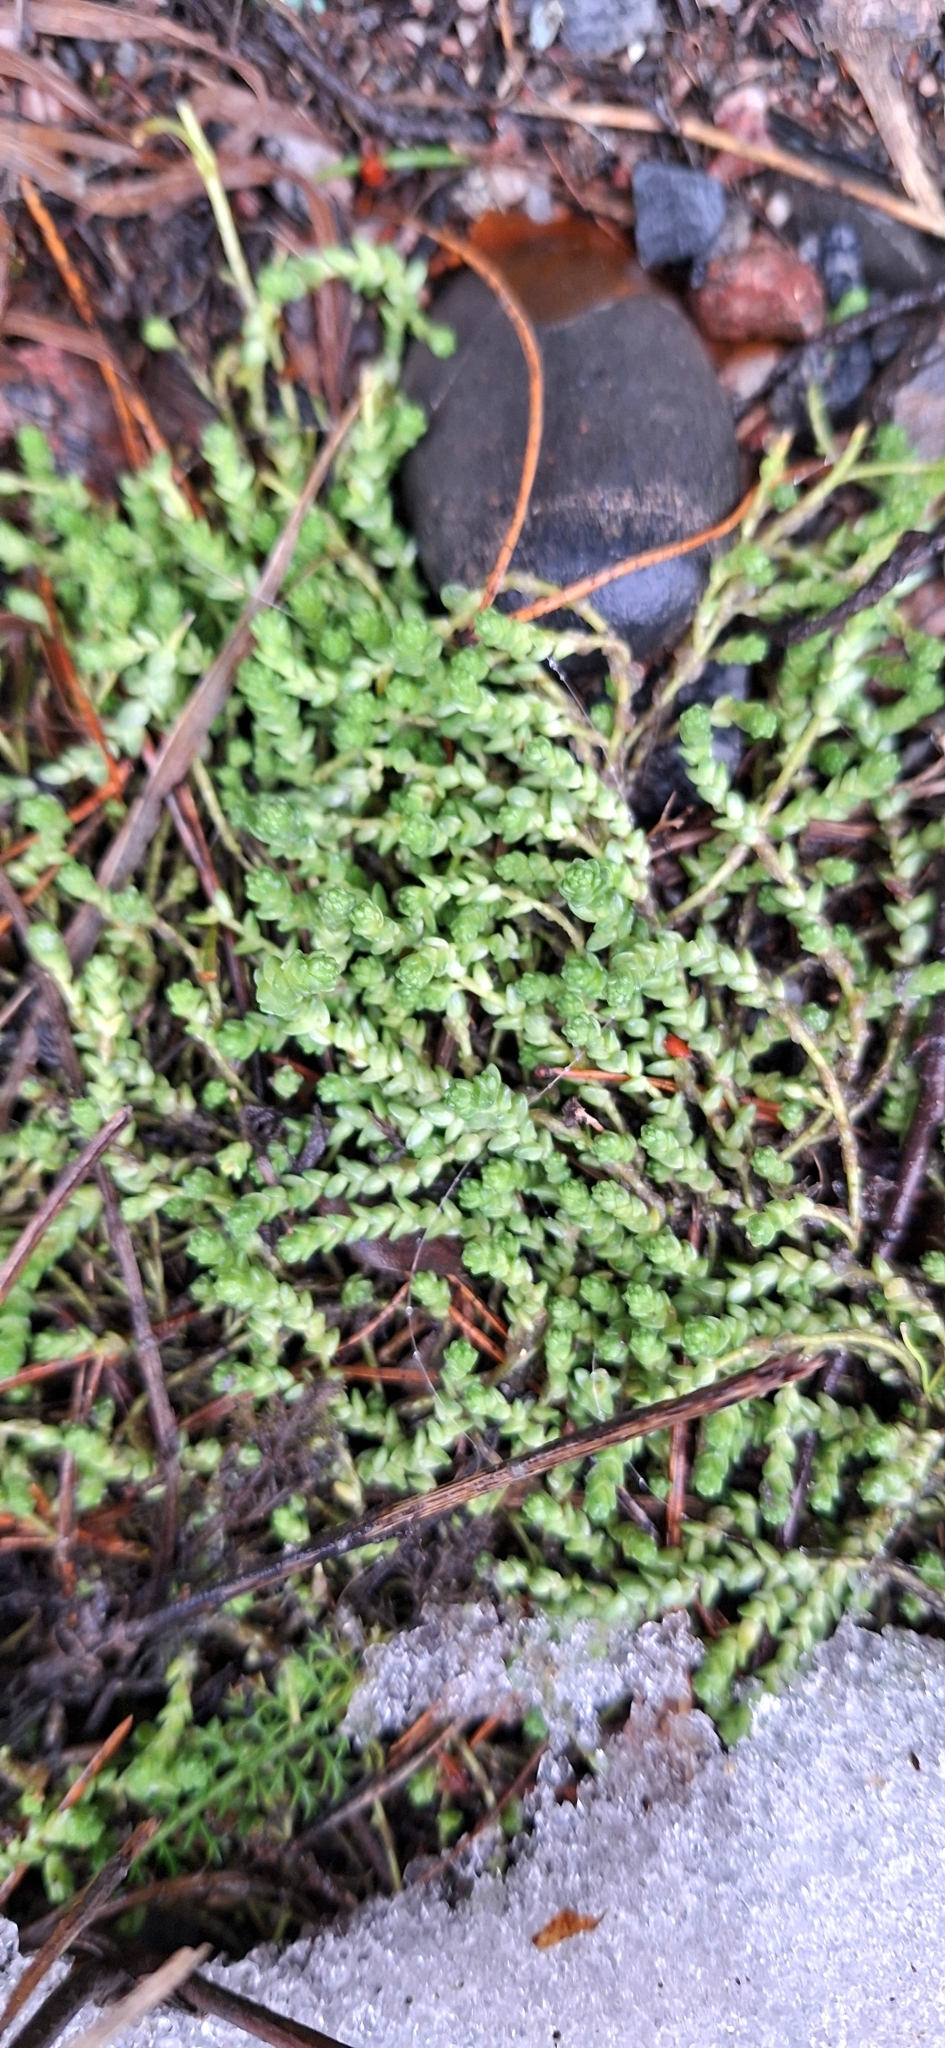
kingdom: Plantae
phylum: Tracheophyta
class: Magnoliopsida
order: Saxifragales
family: Crassulaceae
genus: Sedum
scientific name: Sedum acre
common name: Biting stonecrop
